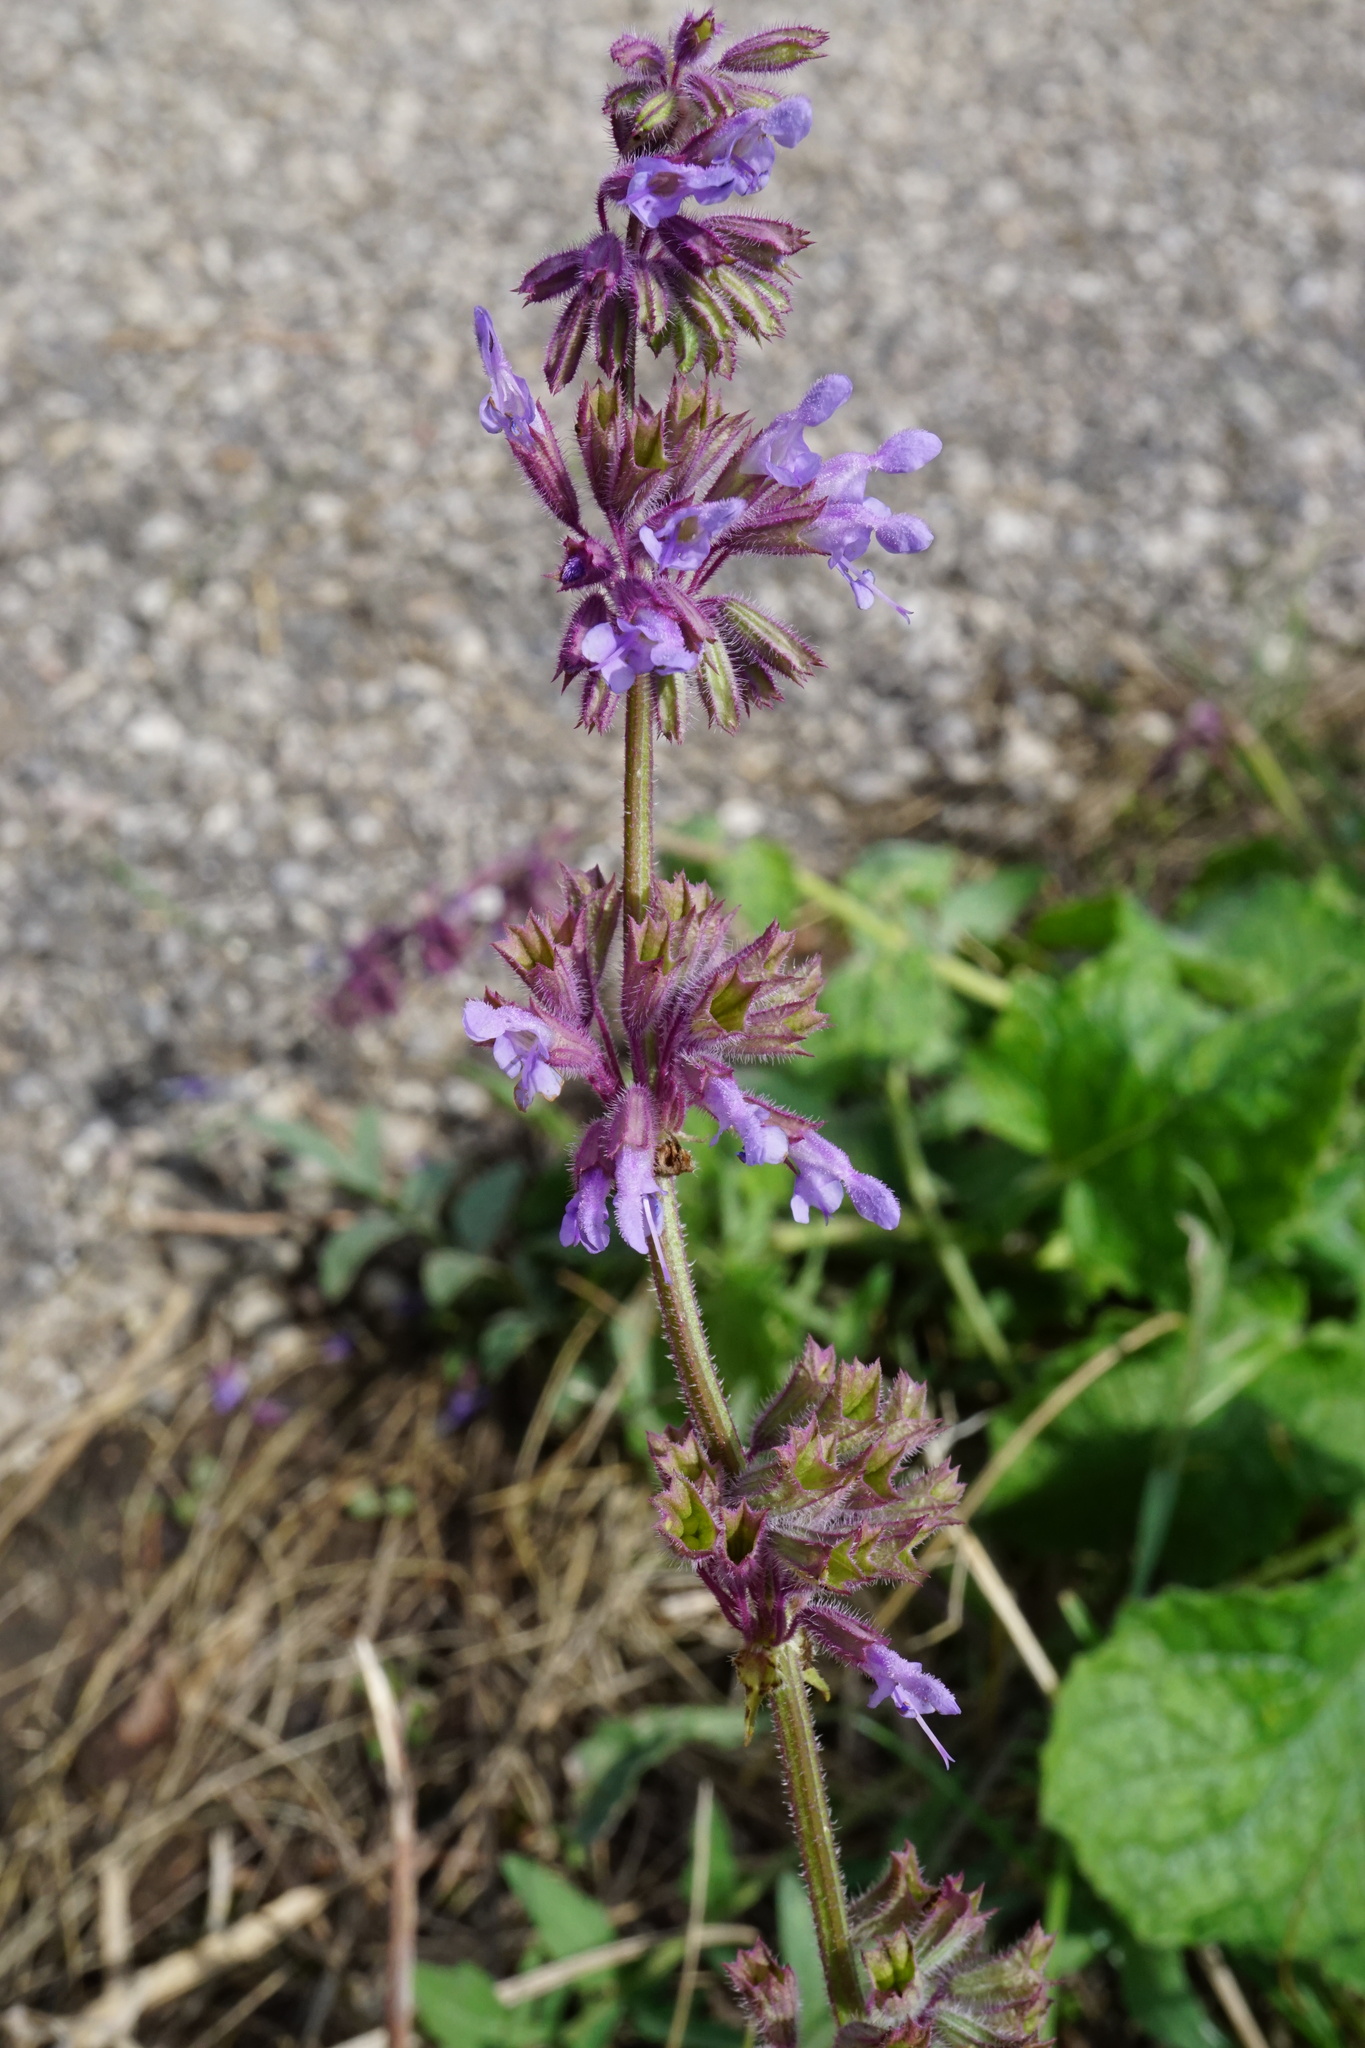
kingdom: Plantae
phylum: Tracheophyta
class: Magnoliopsida
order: Lamiales
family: Lamiaceae
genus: Salvia
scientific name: Salvia verticillata
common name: Whorled clary
